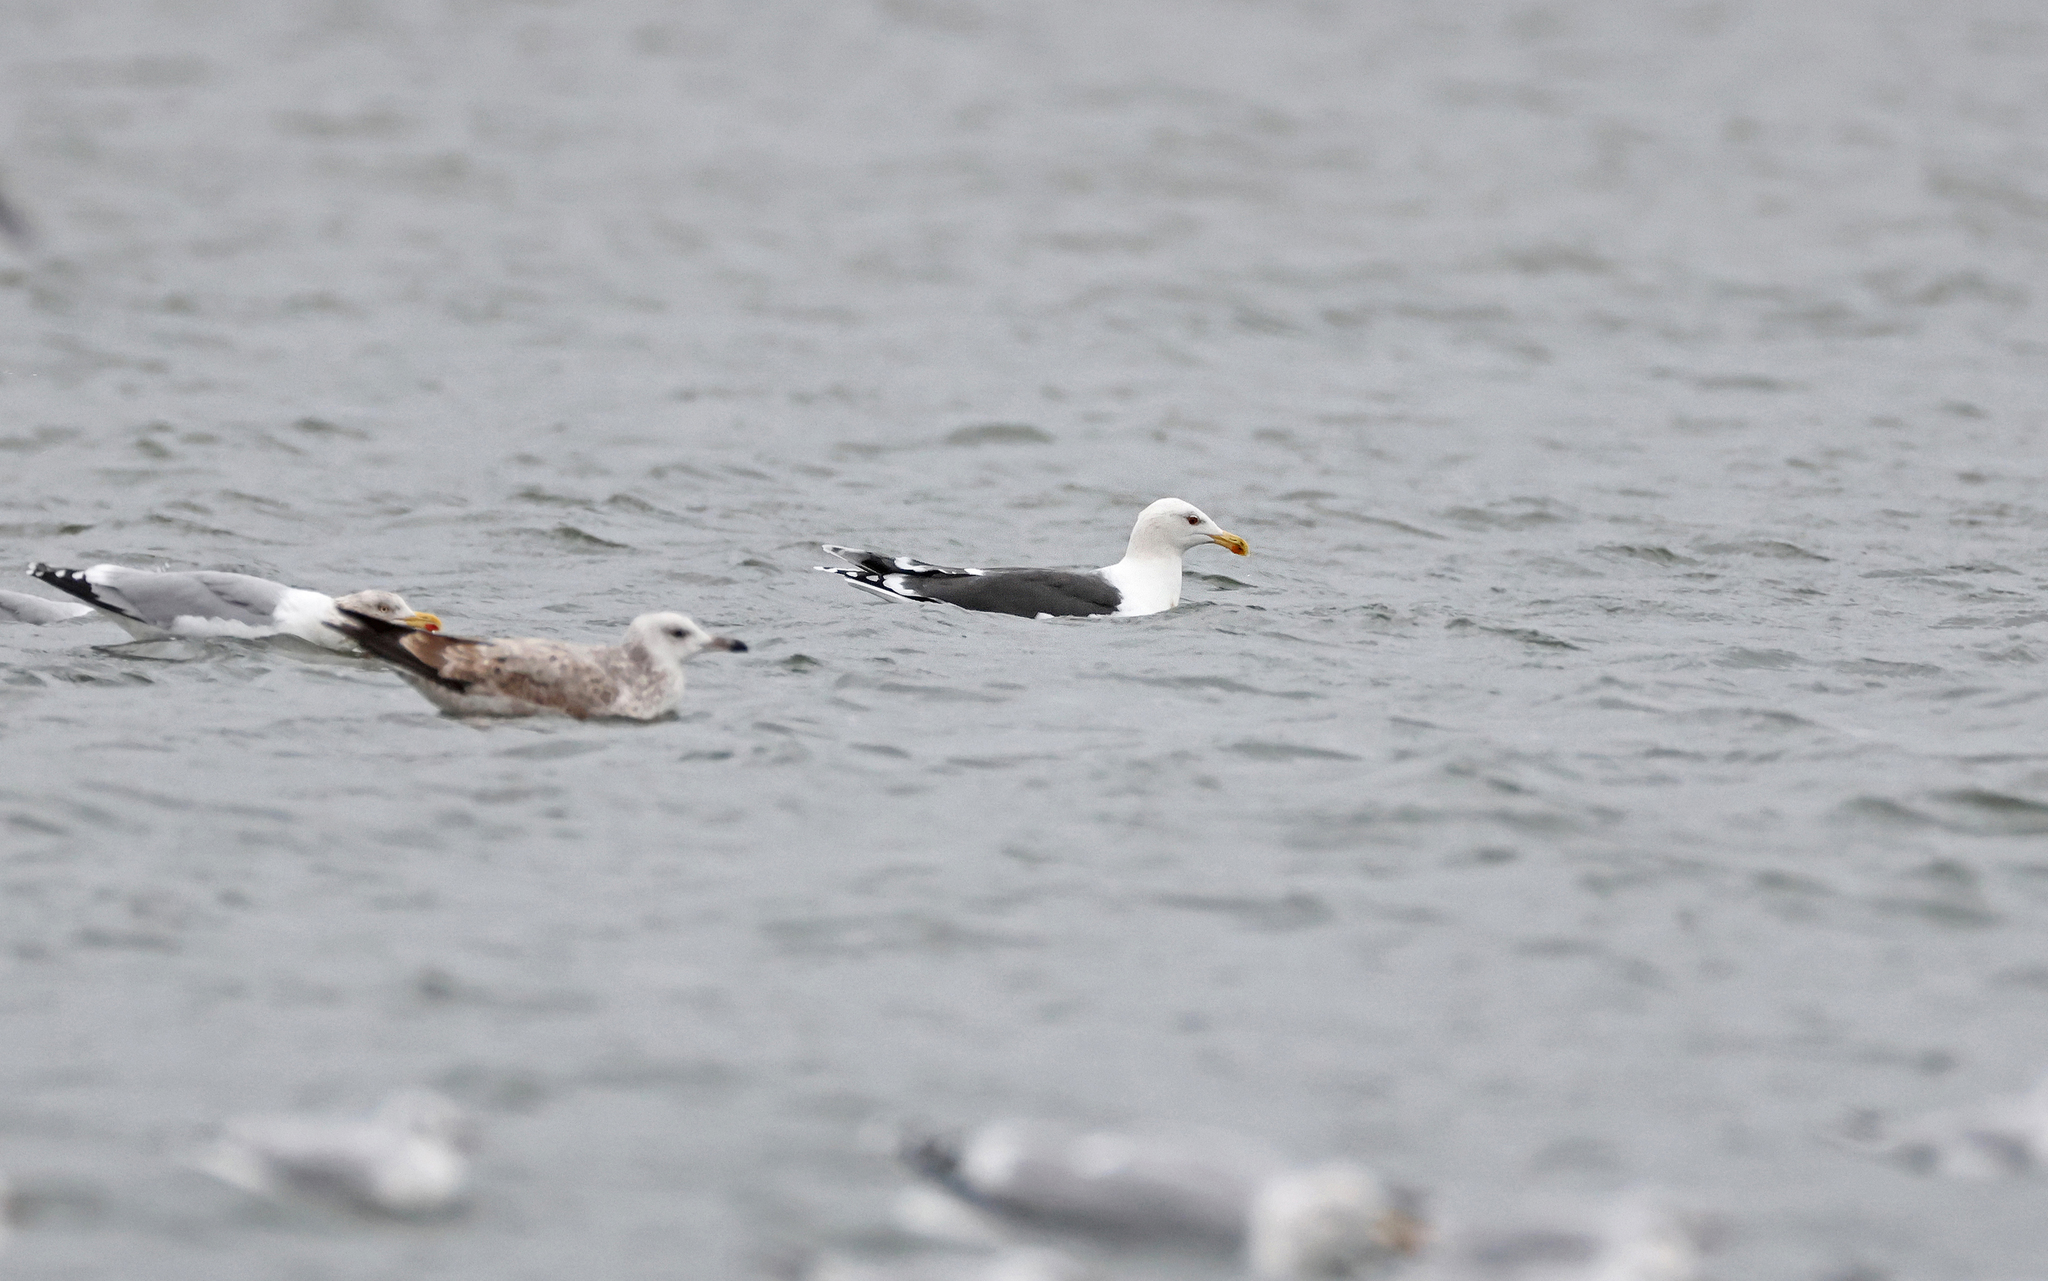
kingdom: Animalia
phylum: Chordata
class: Aves
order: Charadriiformes
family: Laridae
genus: Larus
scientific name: Larus marinus
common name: Great black-backed gull
